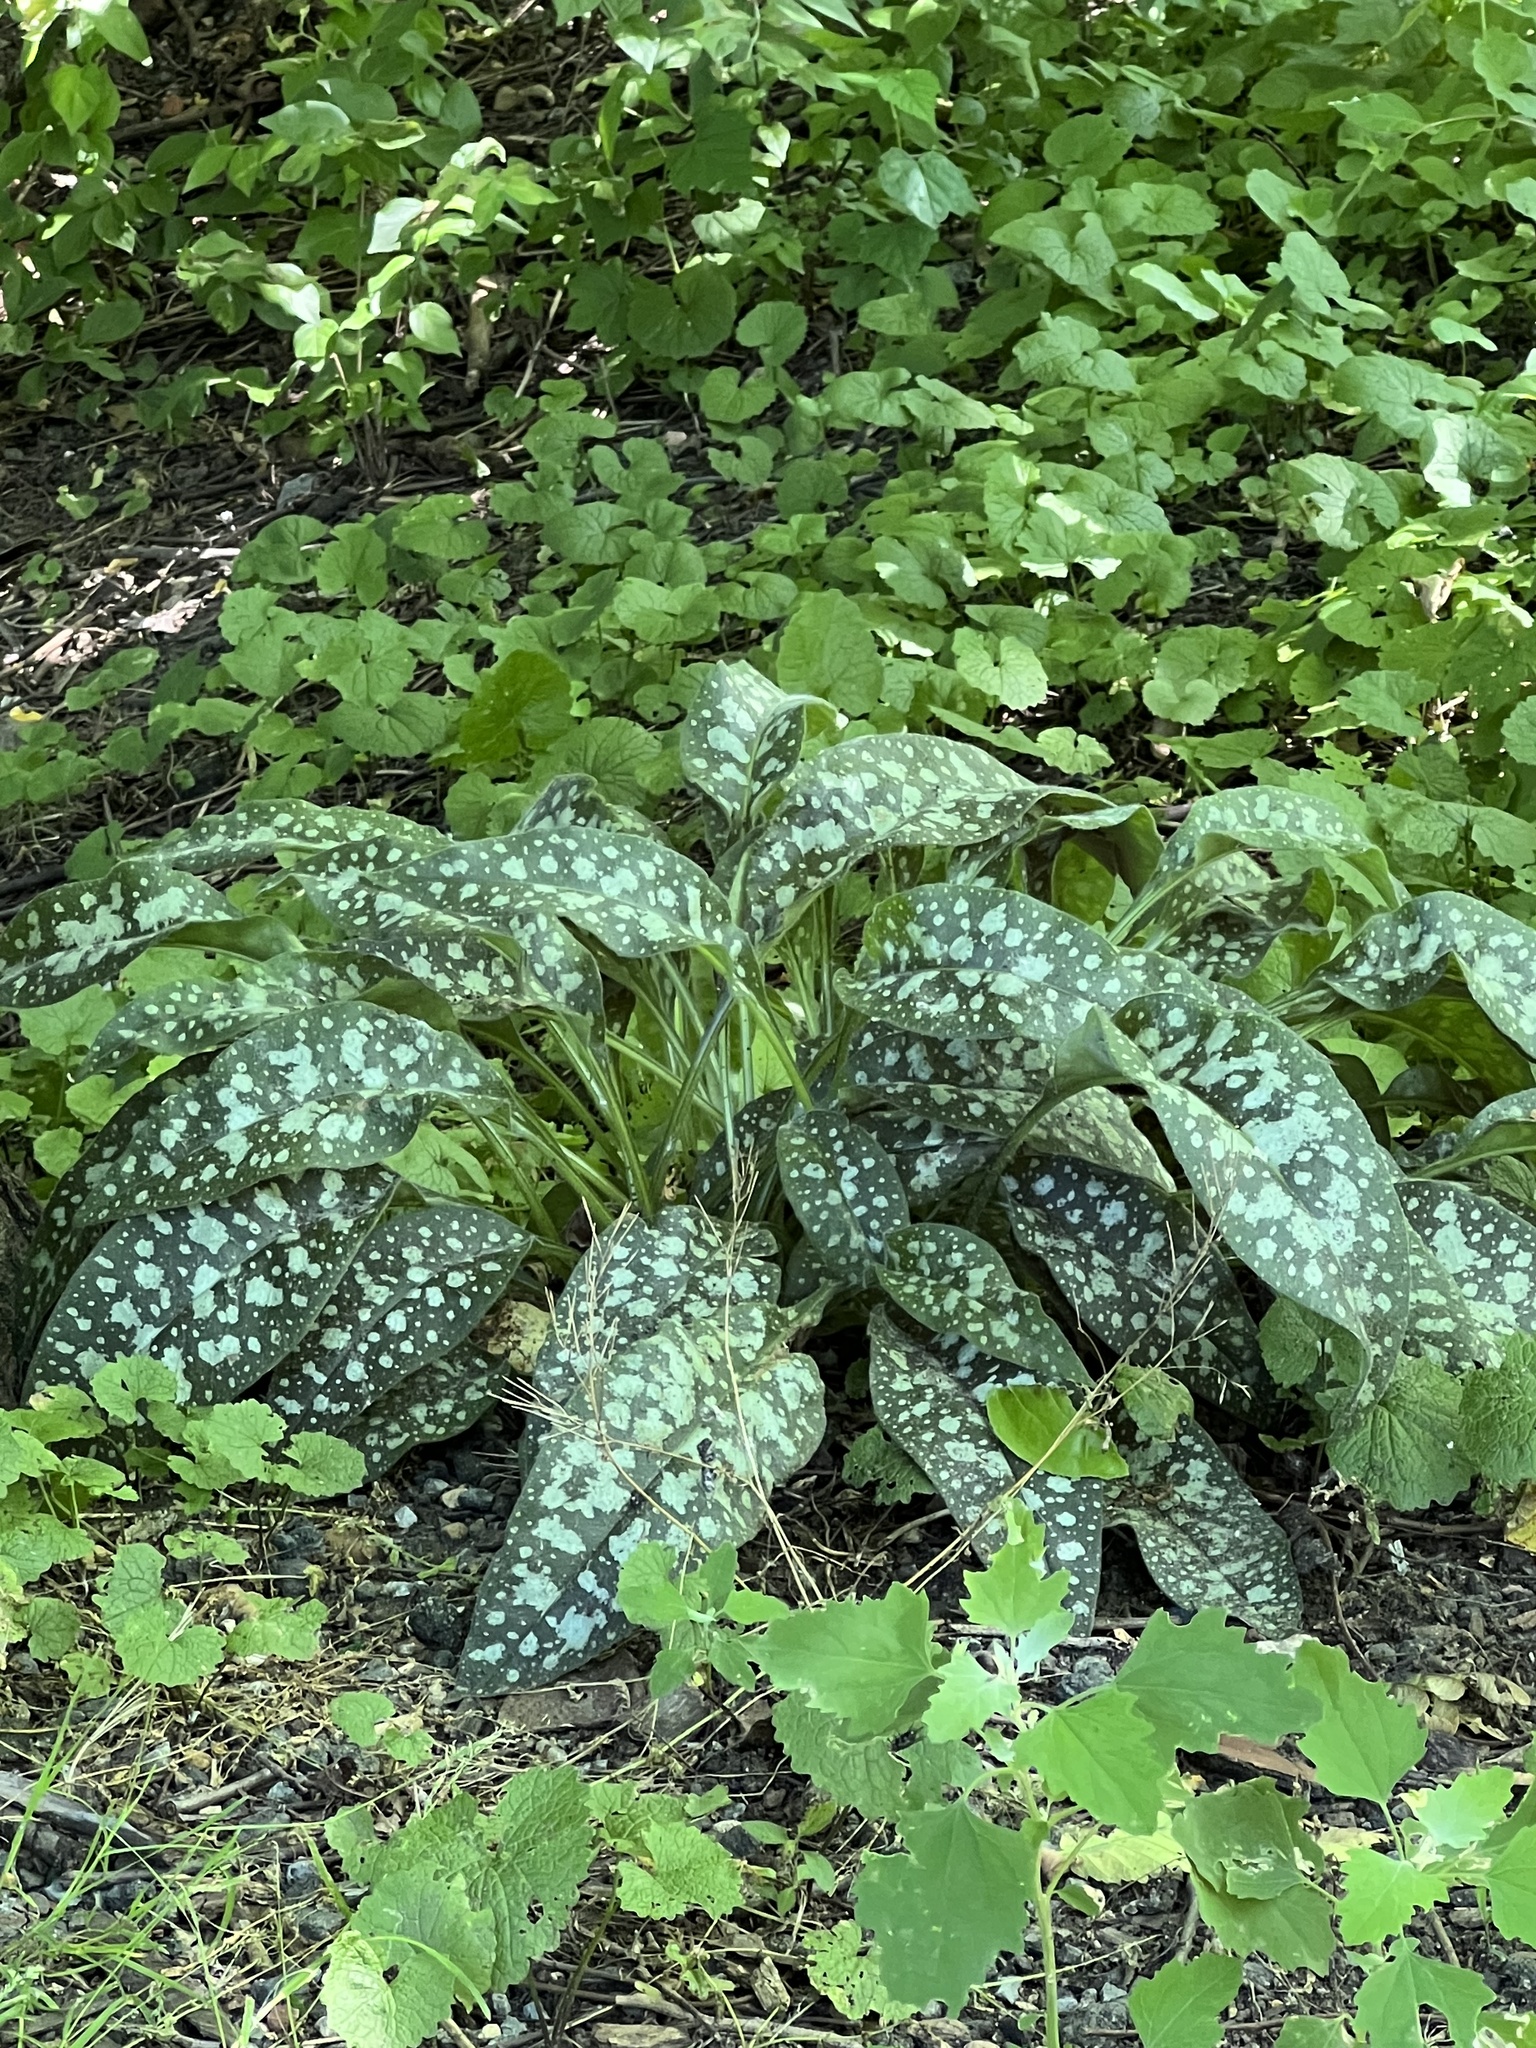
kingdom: Plantae
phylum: Tracheophyta
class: Magnoliopsida
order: Boraginales
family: Boraginaceae
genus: Pulmonaria
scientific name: Pulmonaria saccharata
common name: Bethlehem lungwort
